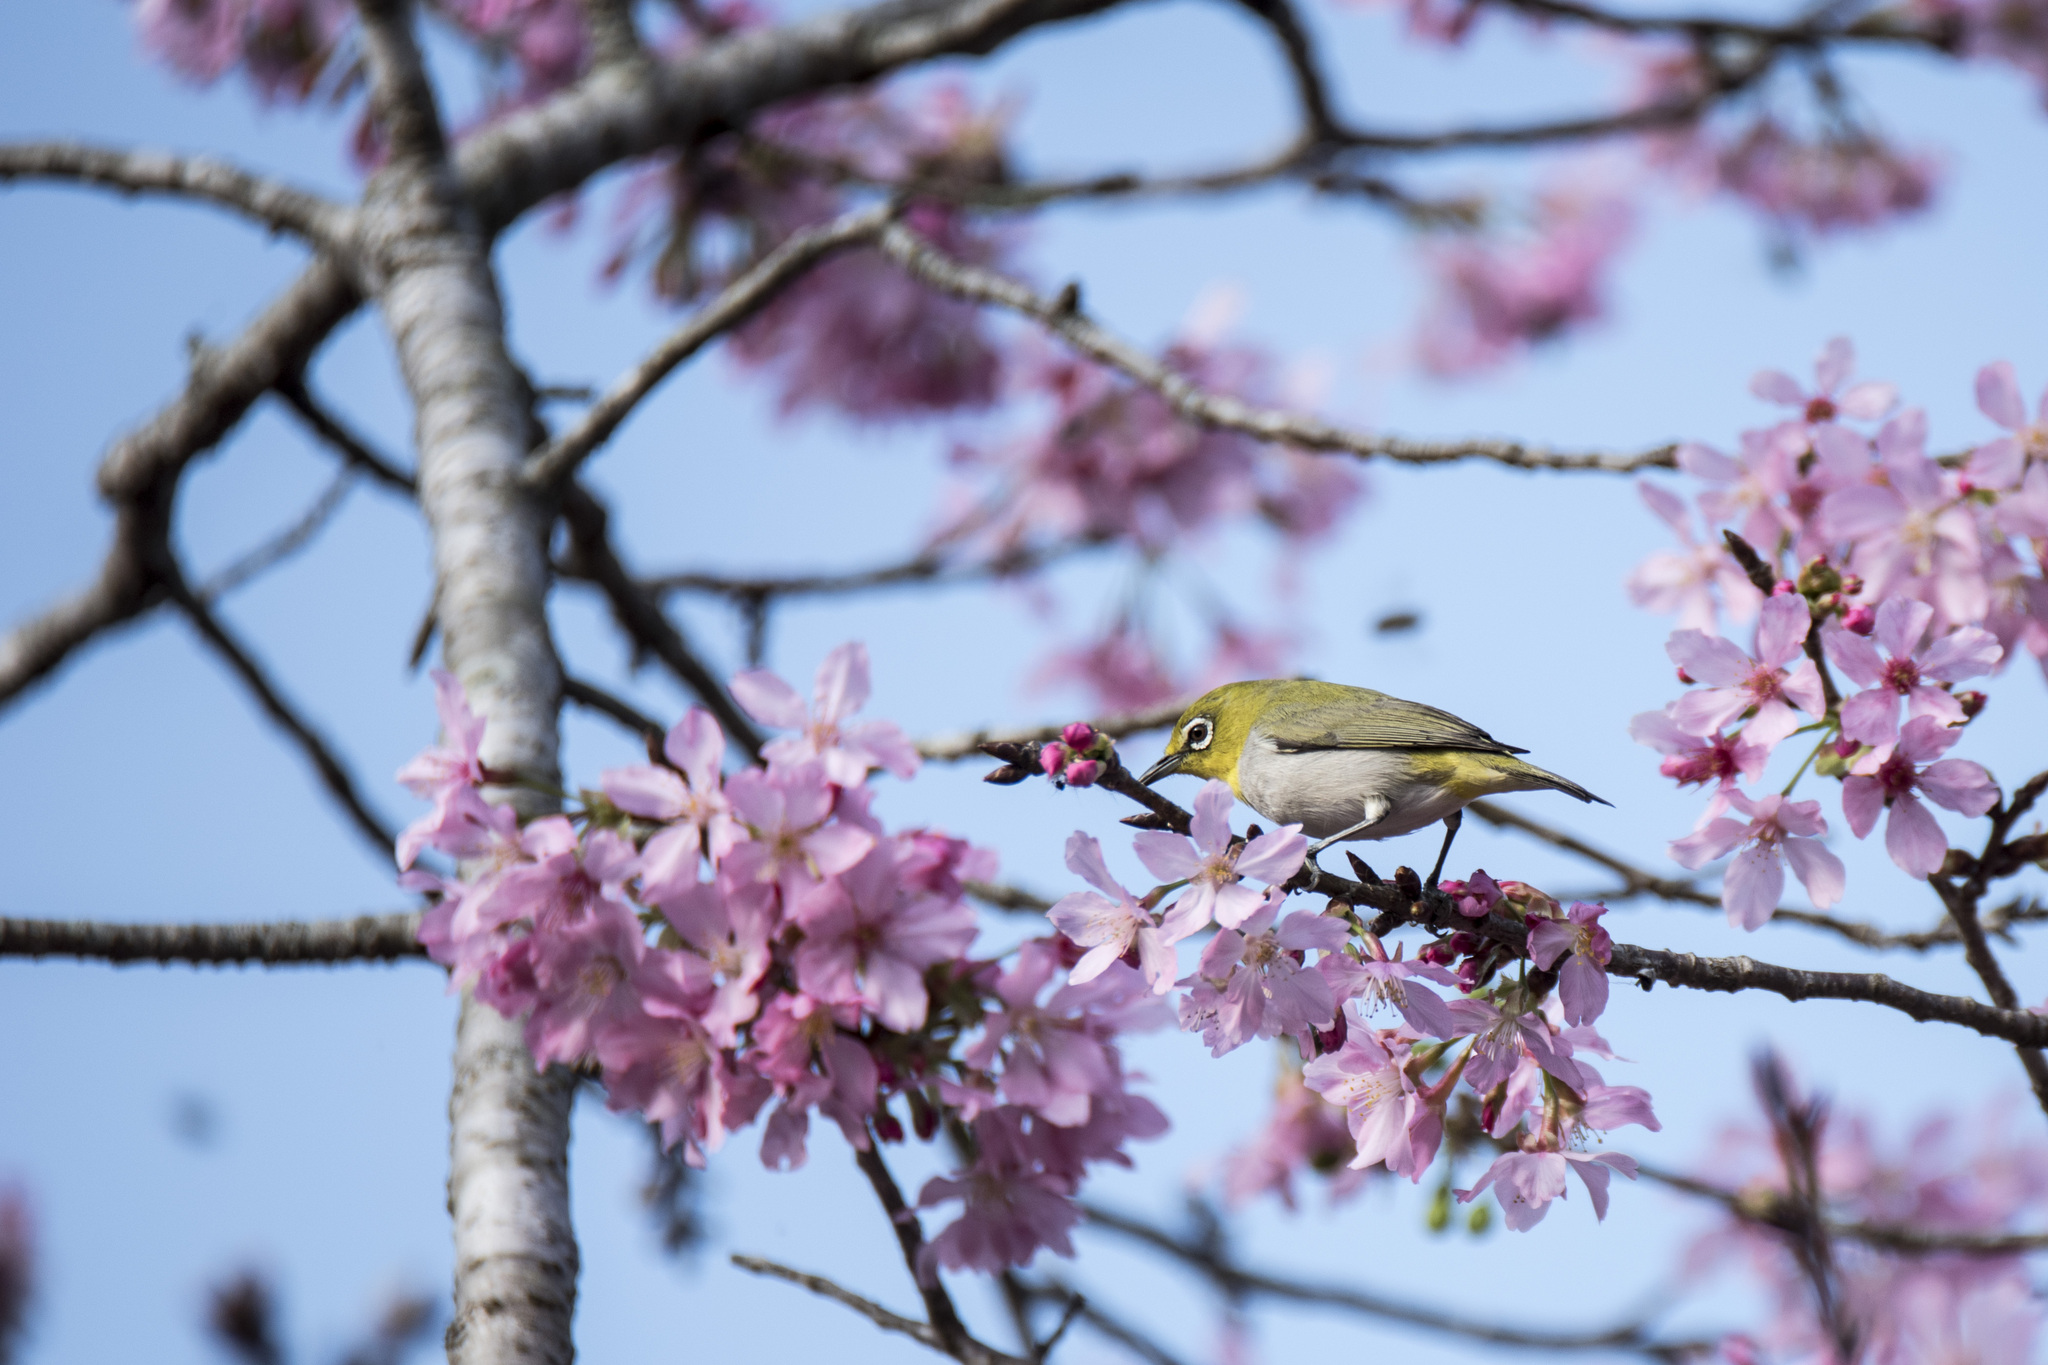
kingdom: Animalia
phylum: Chordata
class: Aves
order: Passeriformes
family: Zosteropidae
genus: Zosterops
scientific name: Zosterops simplex
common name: Swinhoe's white-eye
